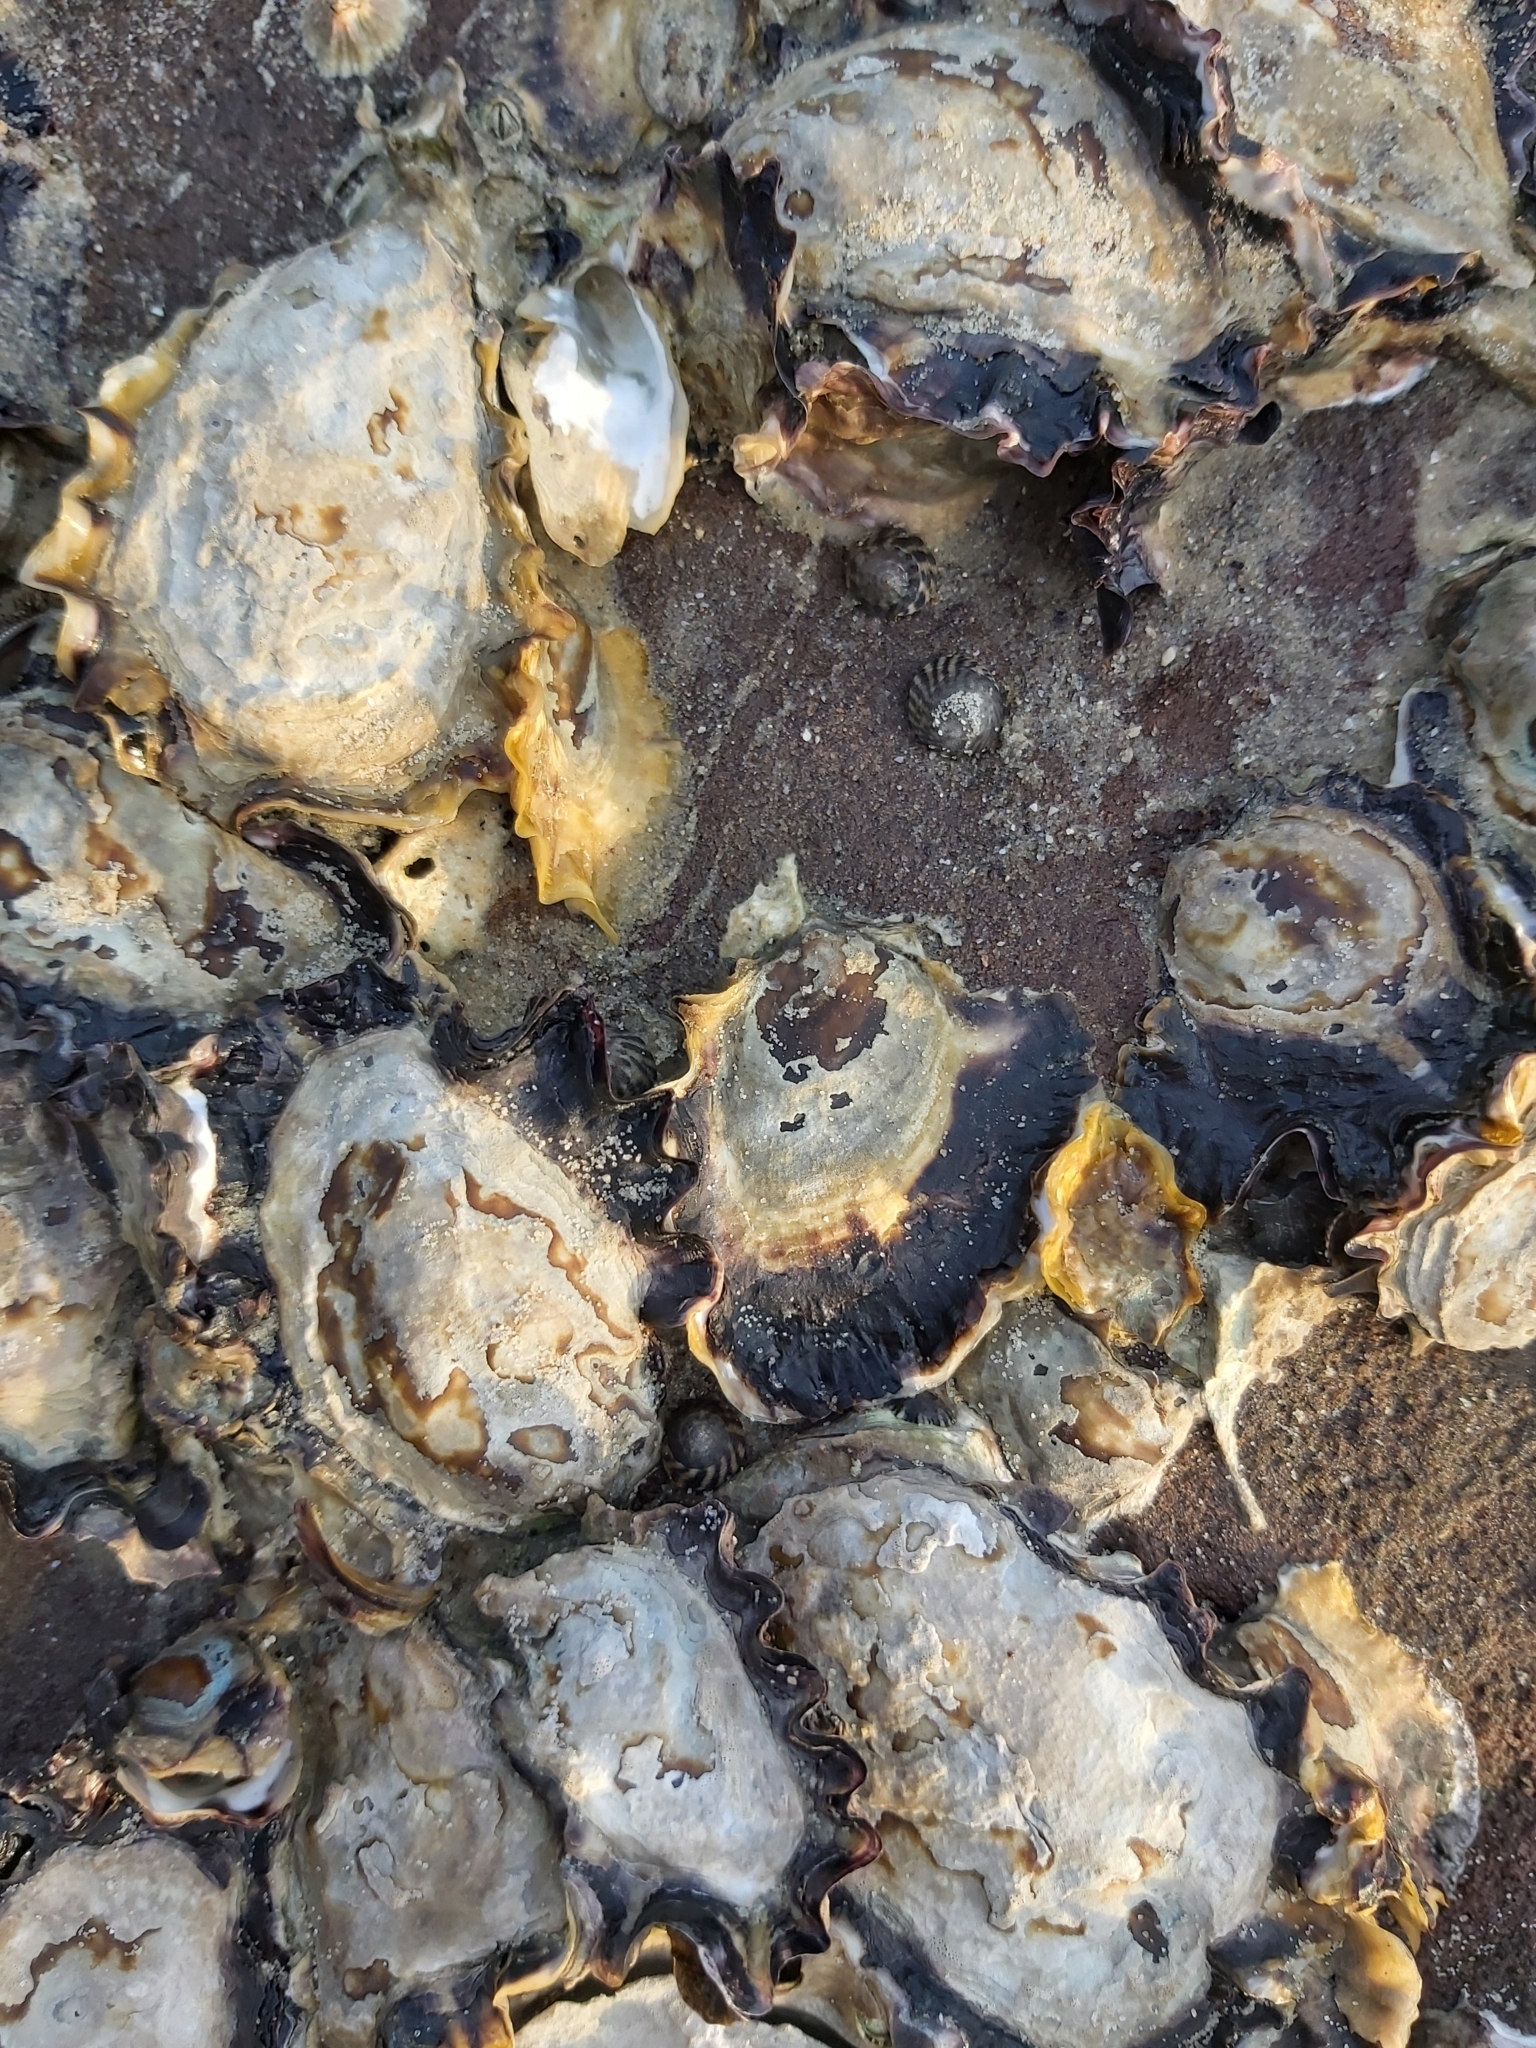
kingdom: Animalia
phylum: Mollusca
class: Bivalvia
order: Ostreida
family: Ostreidae
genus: Saccostrea
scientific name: Saccostrea glomerata
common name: Sydney cupped oyster
